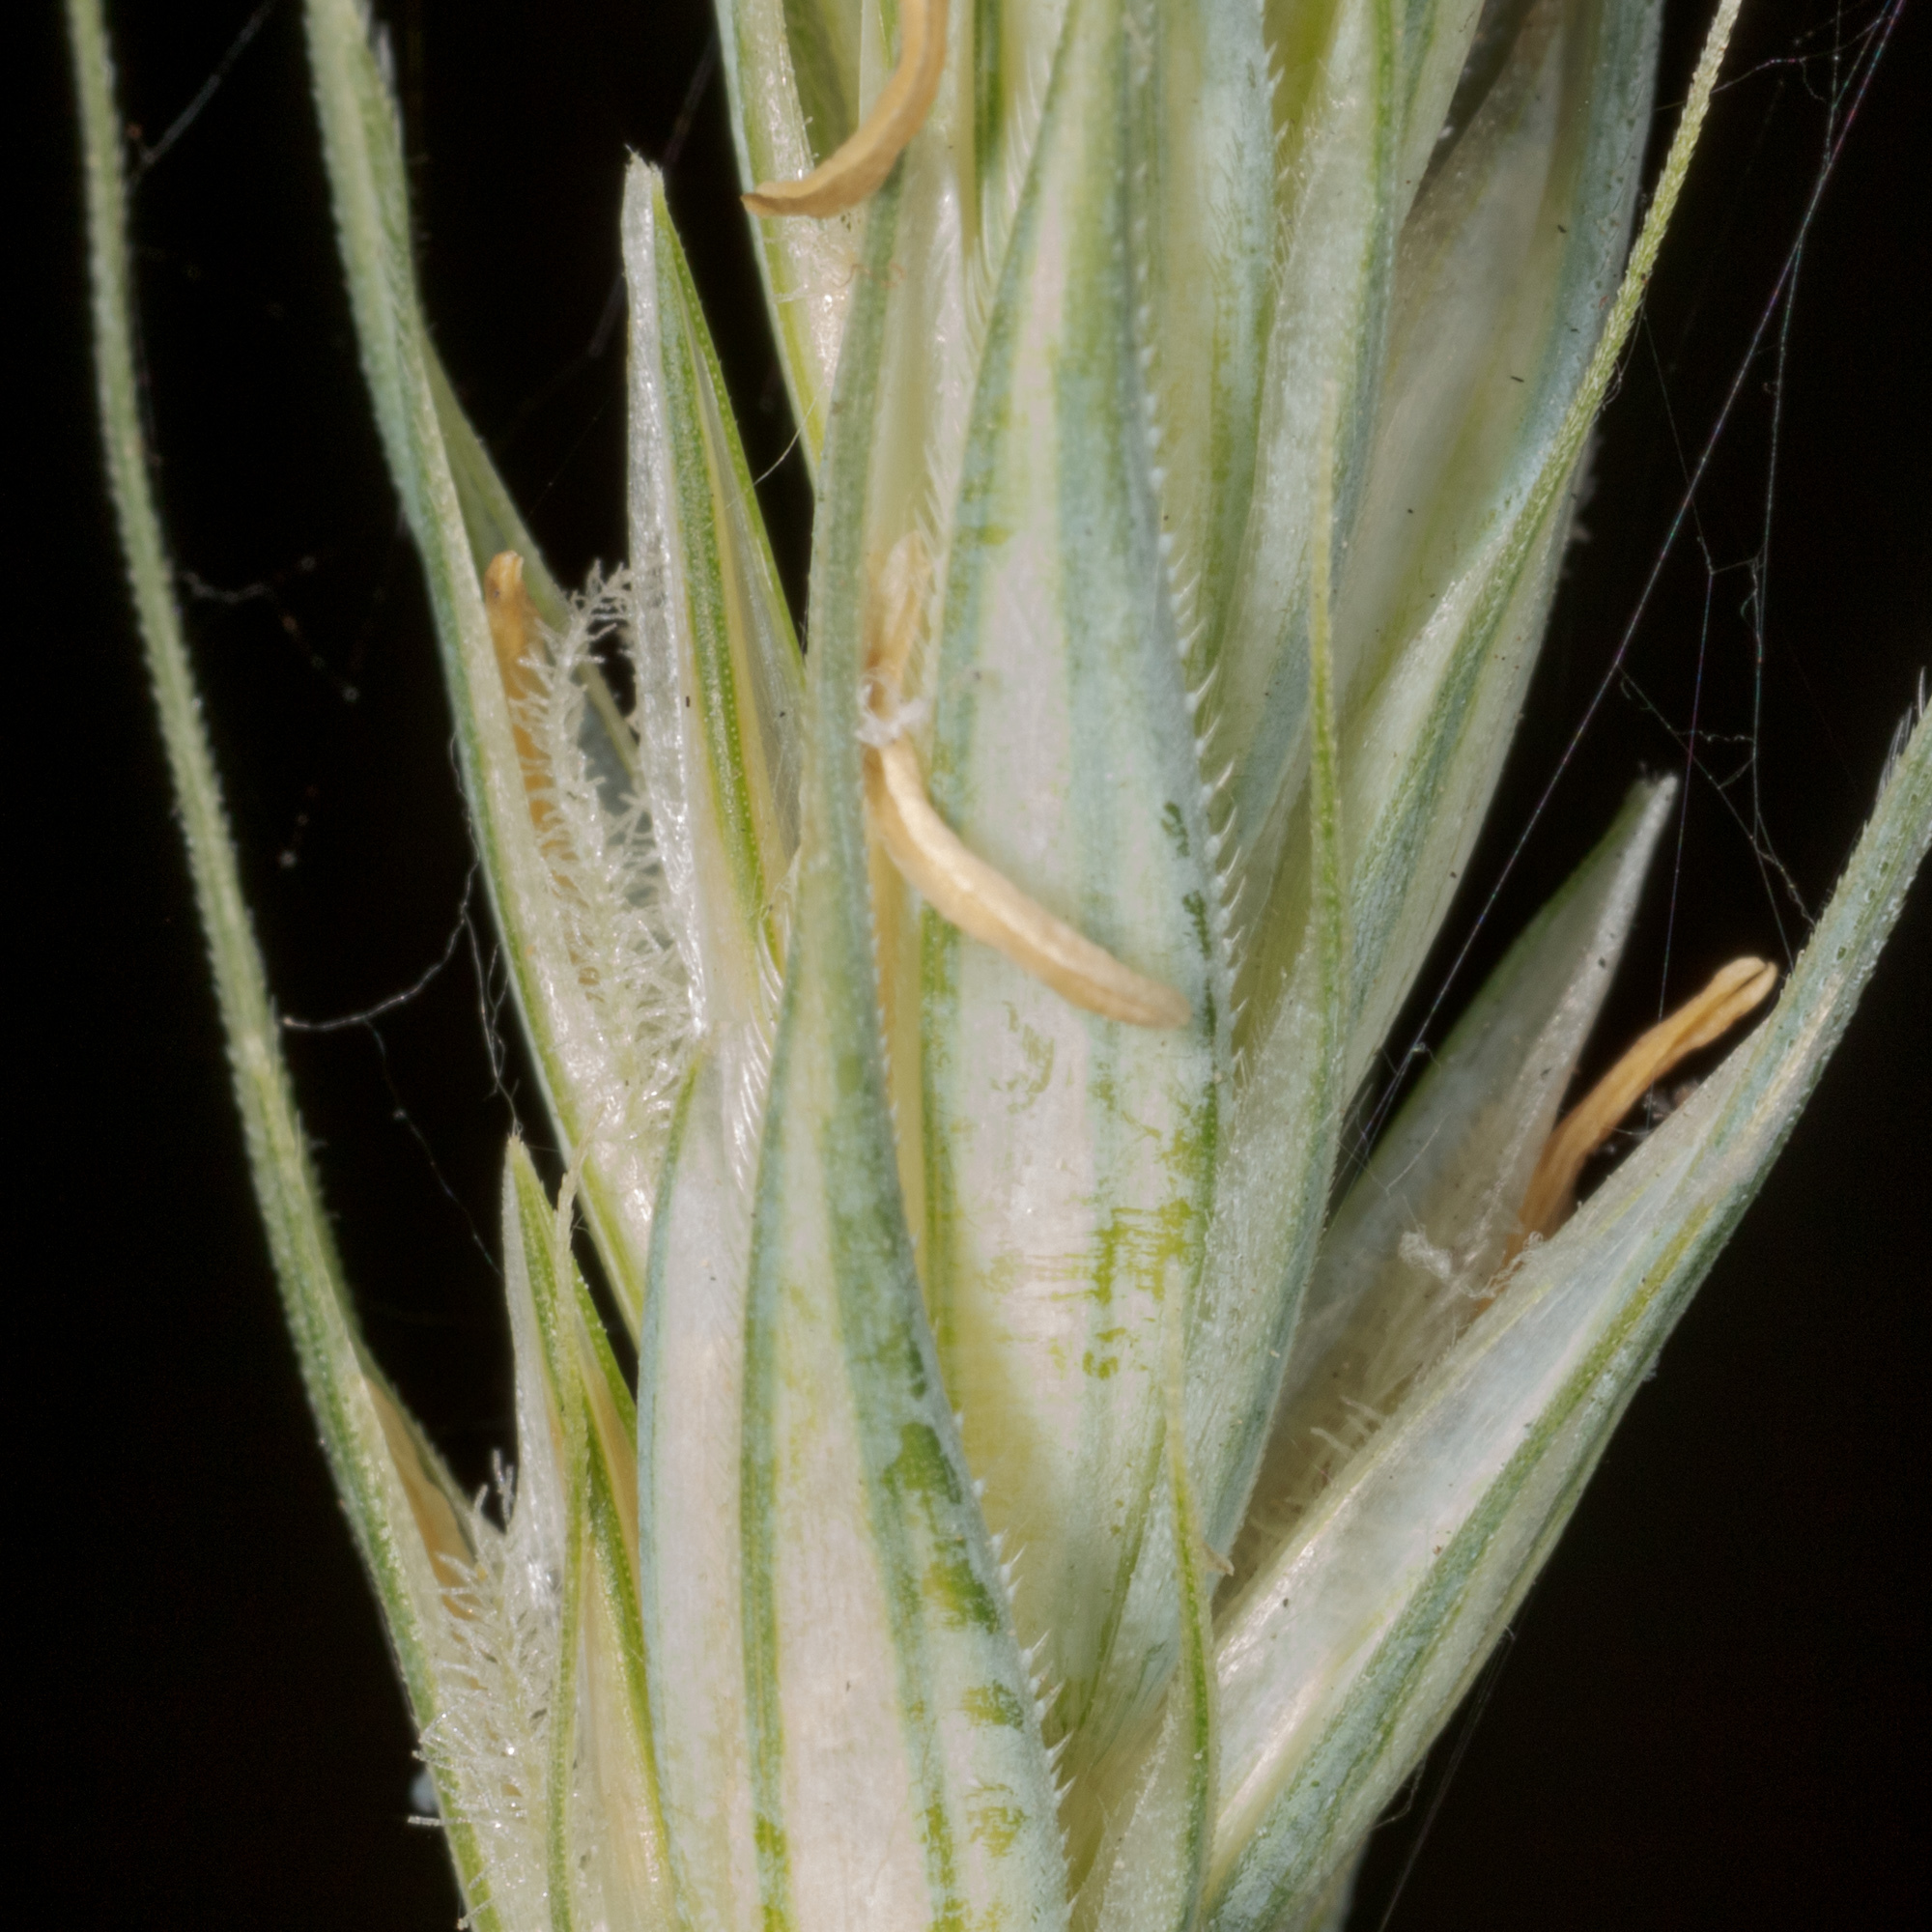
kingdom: Plantae
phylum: Tracheophyta
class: Liliopsida
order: Poales
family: Poaceae
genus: Secale
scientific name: Secale cereale
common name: Rye
